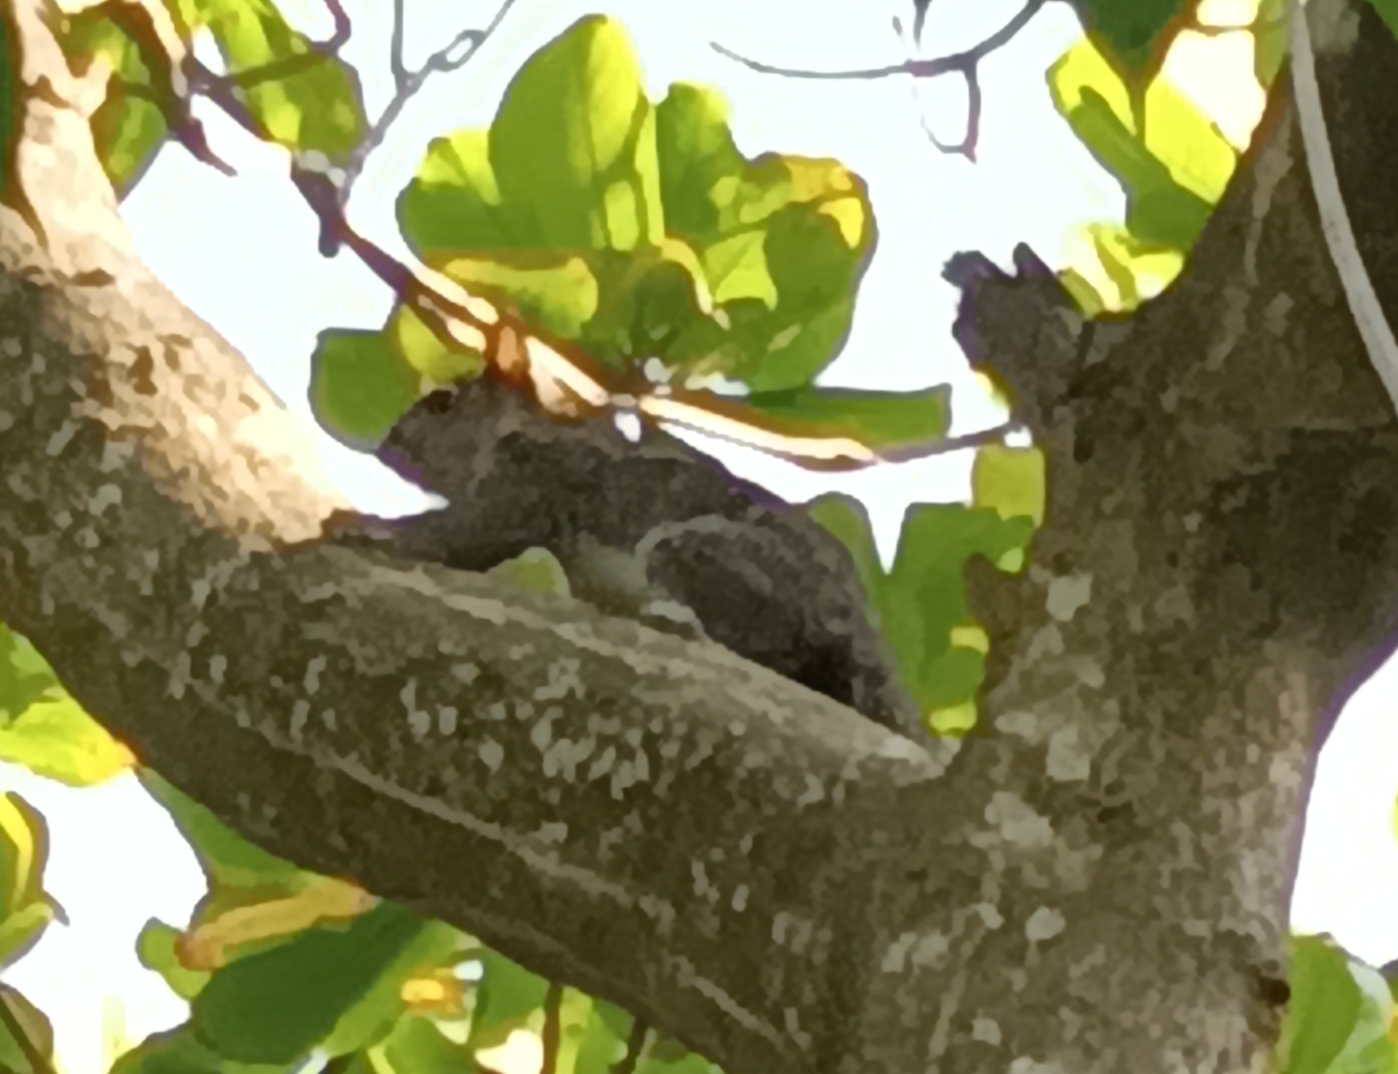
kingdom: Animalia
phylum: Chordata
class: Mammalia
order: Rodentia
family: Sciuridae
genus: Sciurus
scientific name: Sciurus variegatoides
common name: Variegated squirrel
